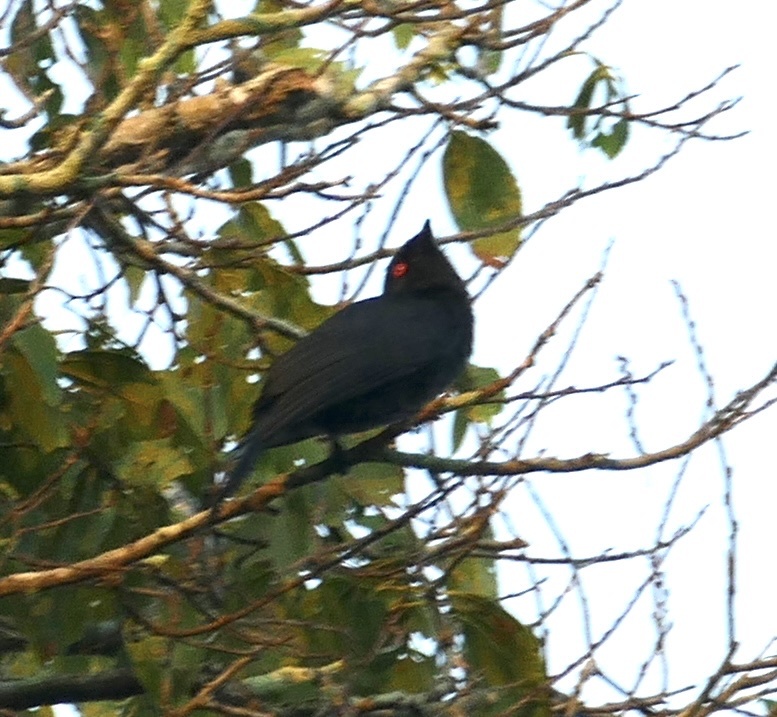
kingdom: Animalia
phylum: Chordata
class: Aves
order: Passeriformes
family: Dicruridae
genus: Dicrurus
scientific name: Dicrurus ludwigii
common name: Square-tailed drongo
